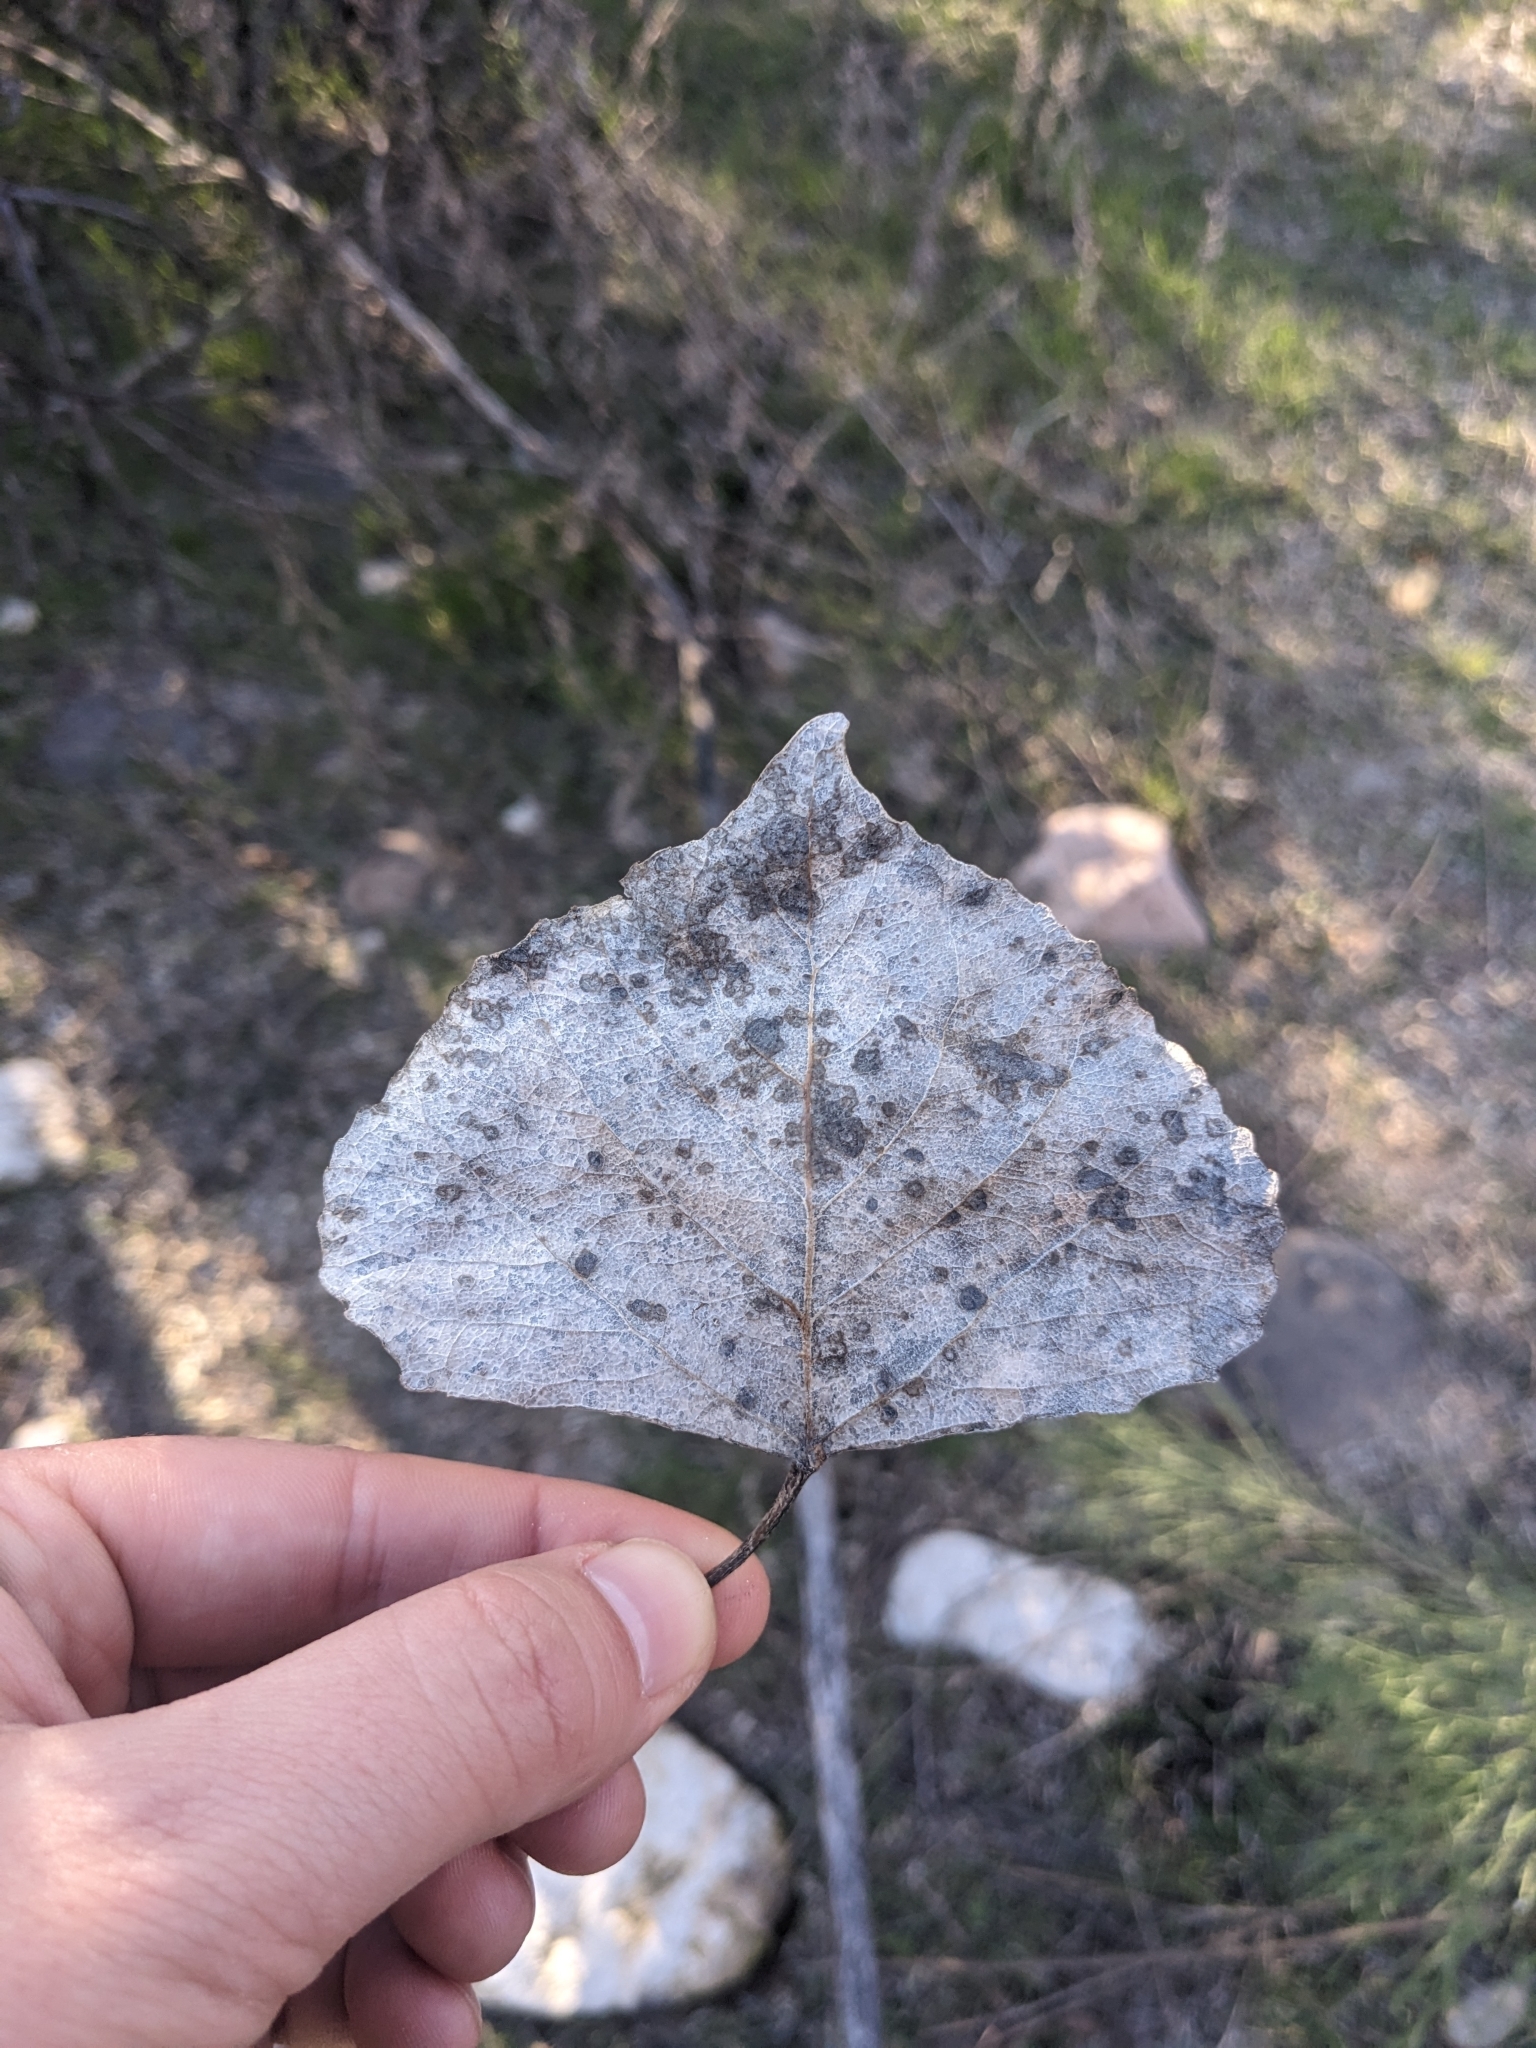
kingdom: Plantae
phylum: Tracheophyta
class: Magnoliopsida
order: Malpighiales
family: Salicaceae
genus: Populus
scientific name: Populus fremontii
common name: Fremont's cottonwood
